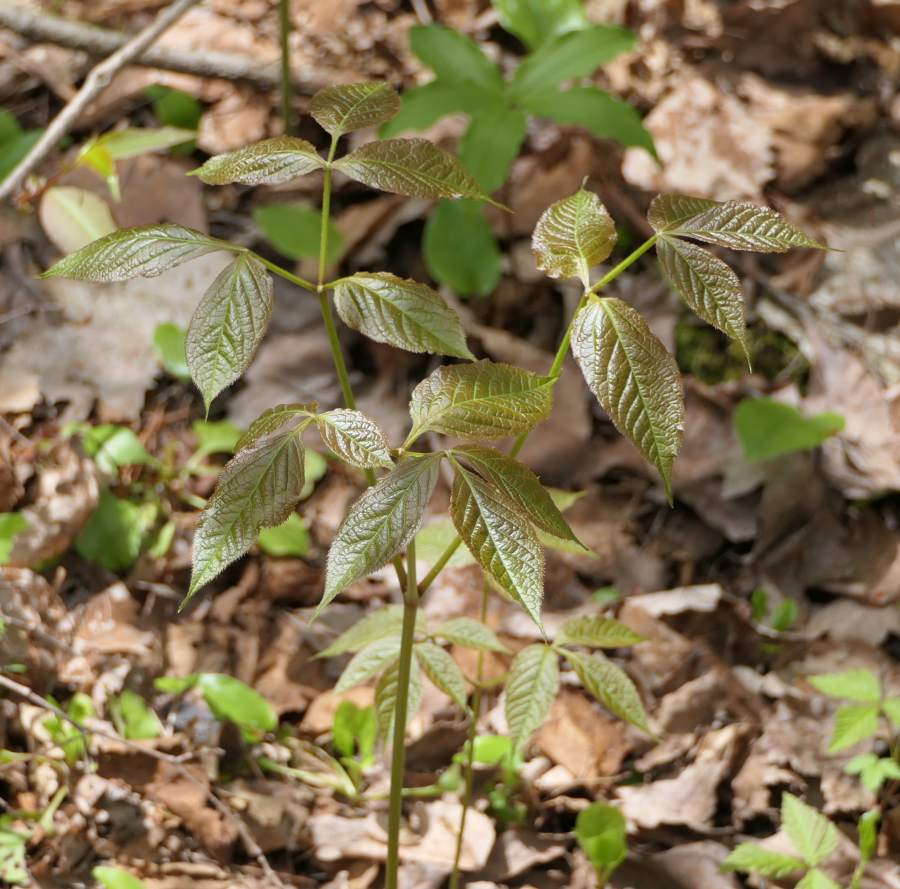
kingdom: Plantae
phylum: Tracheophyta
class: Magnoliopsida
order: Apiales
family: Araliaceae
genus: Aralia
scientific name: Aralia nudicaulis
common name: Wild sarsaparilla
